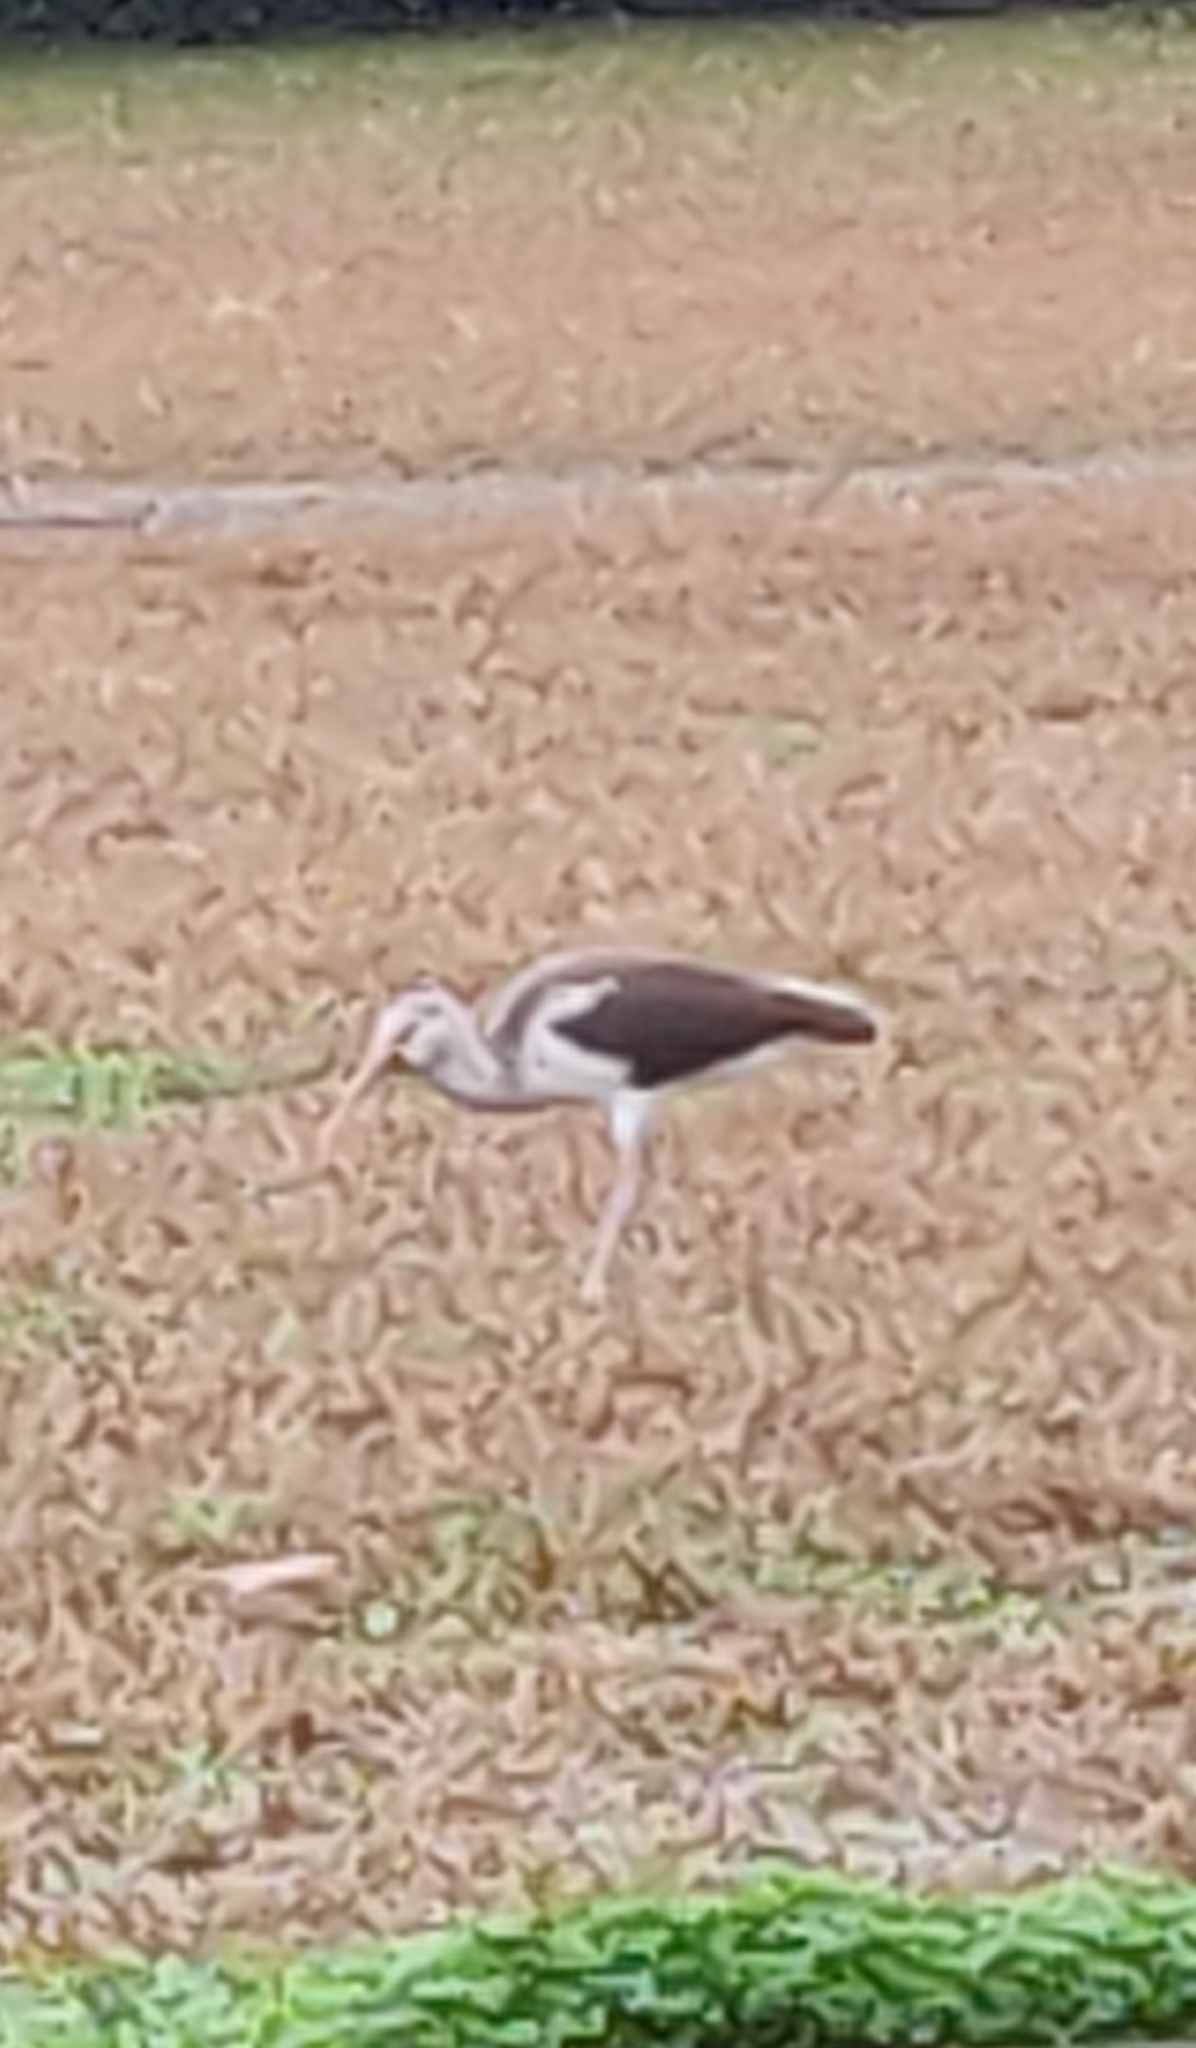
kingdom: Animalia
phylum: Chordata
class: Aves
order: Pelecaniformes
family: Threskiornithidae
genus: Eudocimus
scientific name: Eudocimus albus
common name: White ibis
